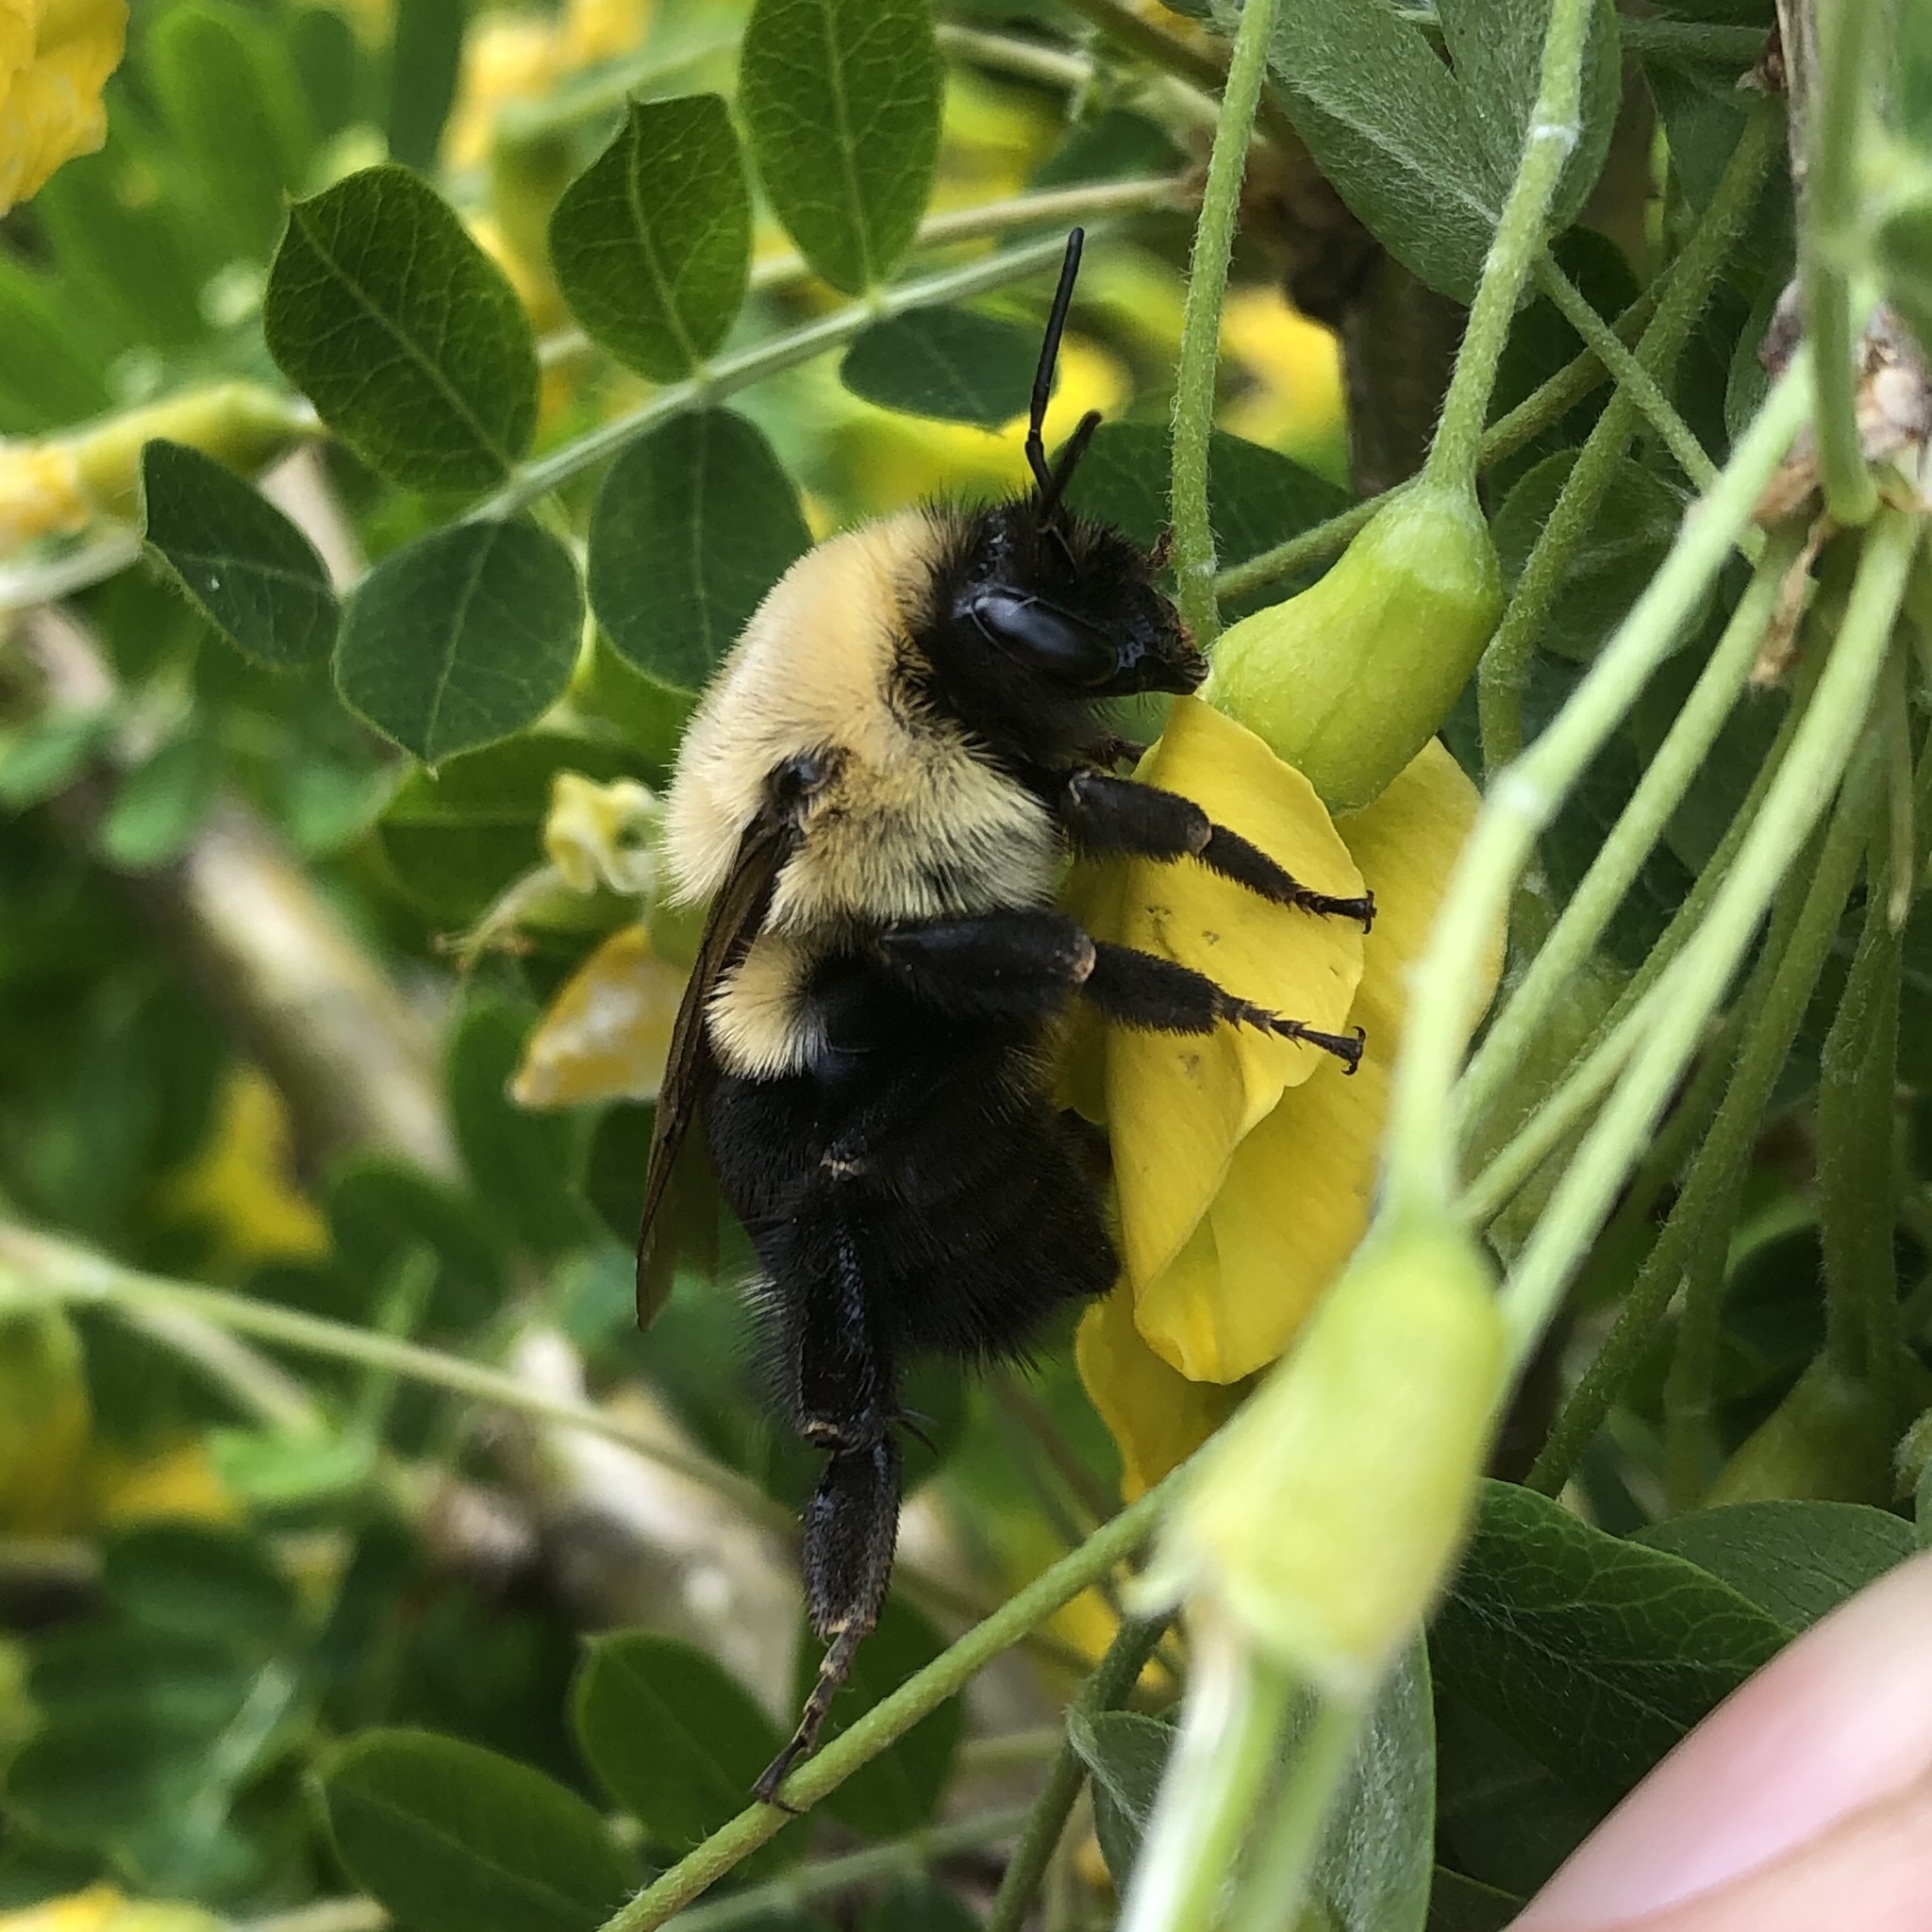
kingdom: Animalia
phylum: Arthropoda
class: Insecta
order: Hymenoptera
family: Apidae
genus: Bombus
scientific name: Bombus impatiens
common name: Common eastern bumble bee
